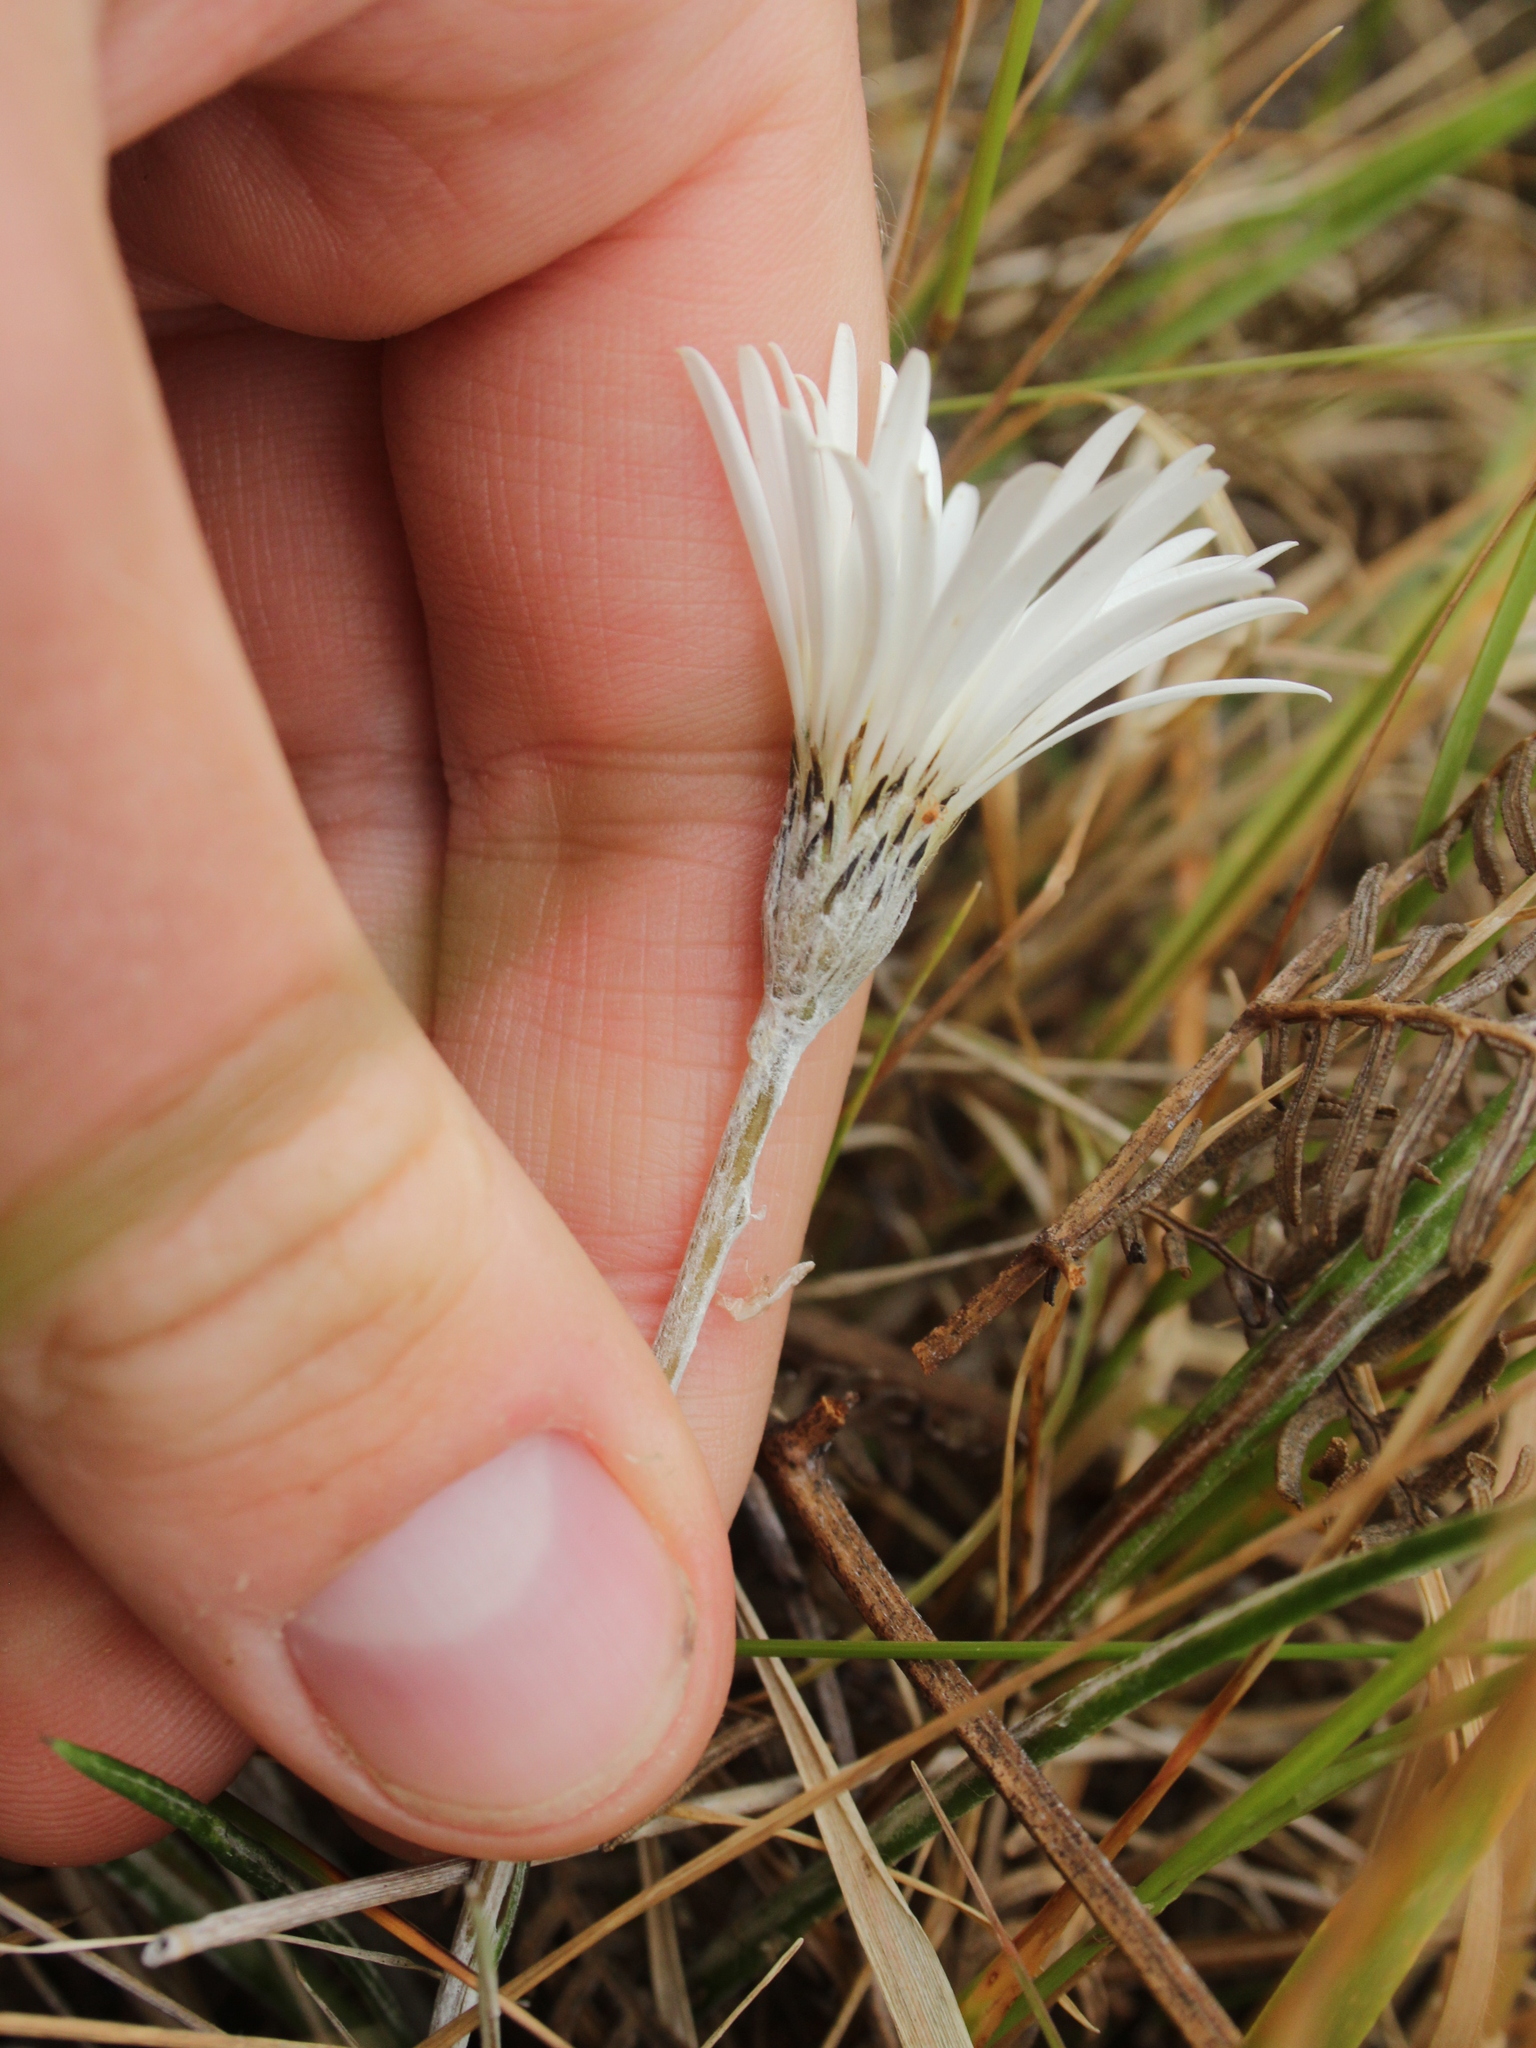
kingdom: Plantae
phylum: Tracheophyta
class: Magnoliopsida
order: Asterales
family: Asteraceae
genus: Celmisia
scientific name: Celmisia gracilenta
